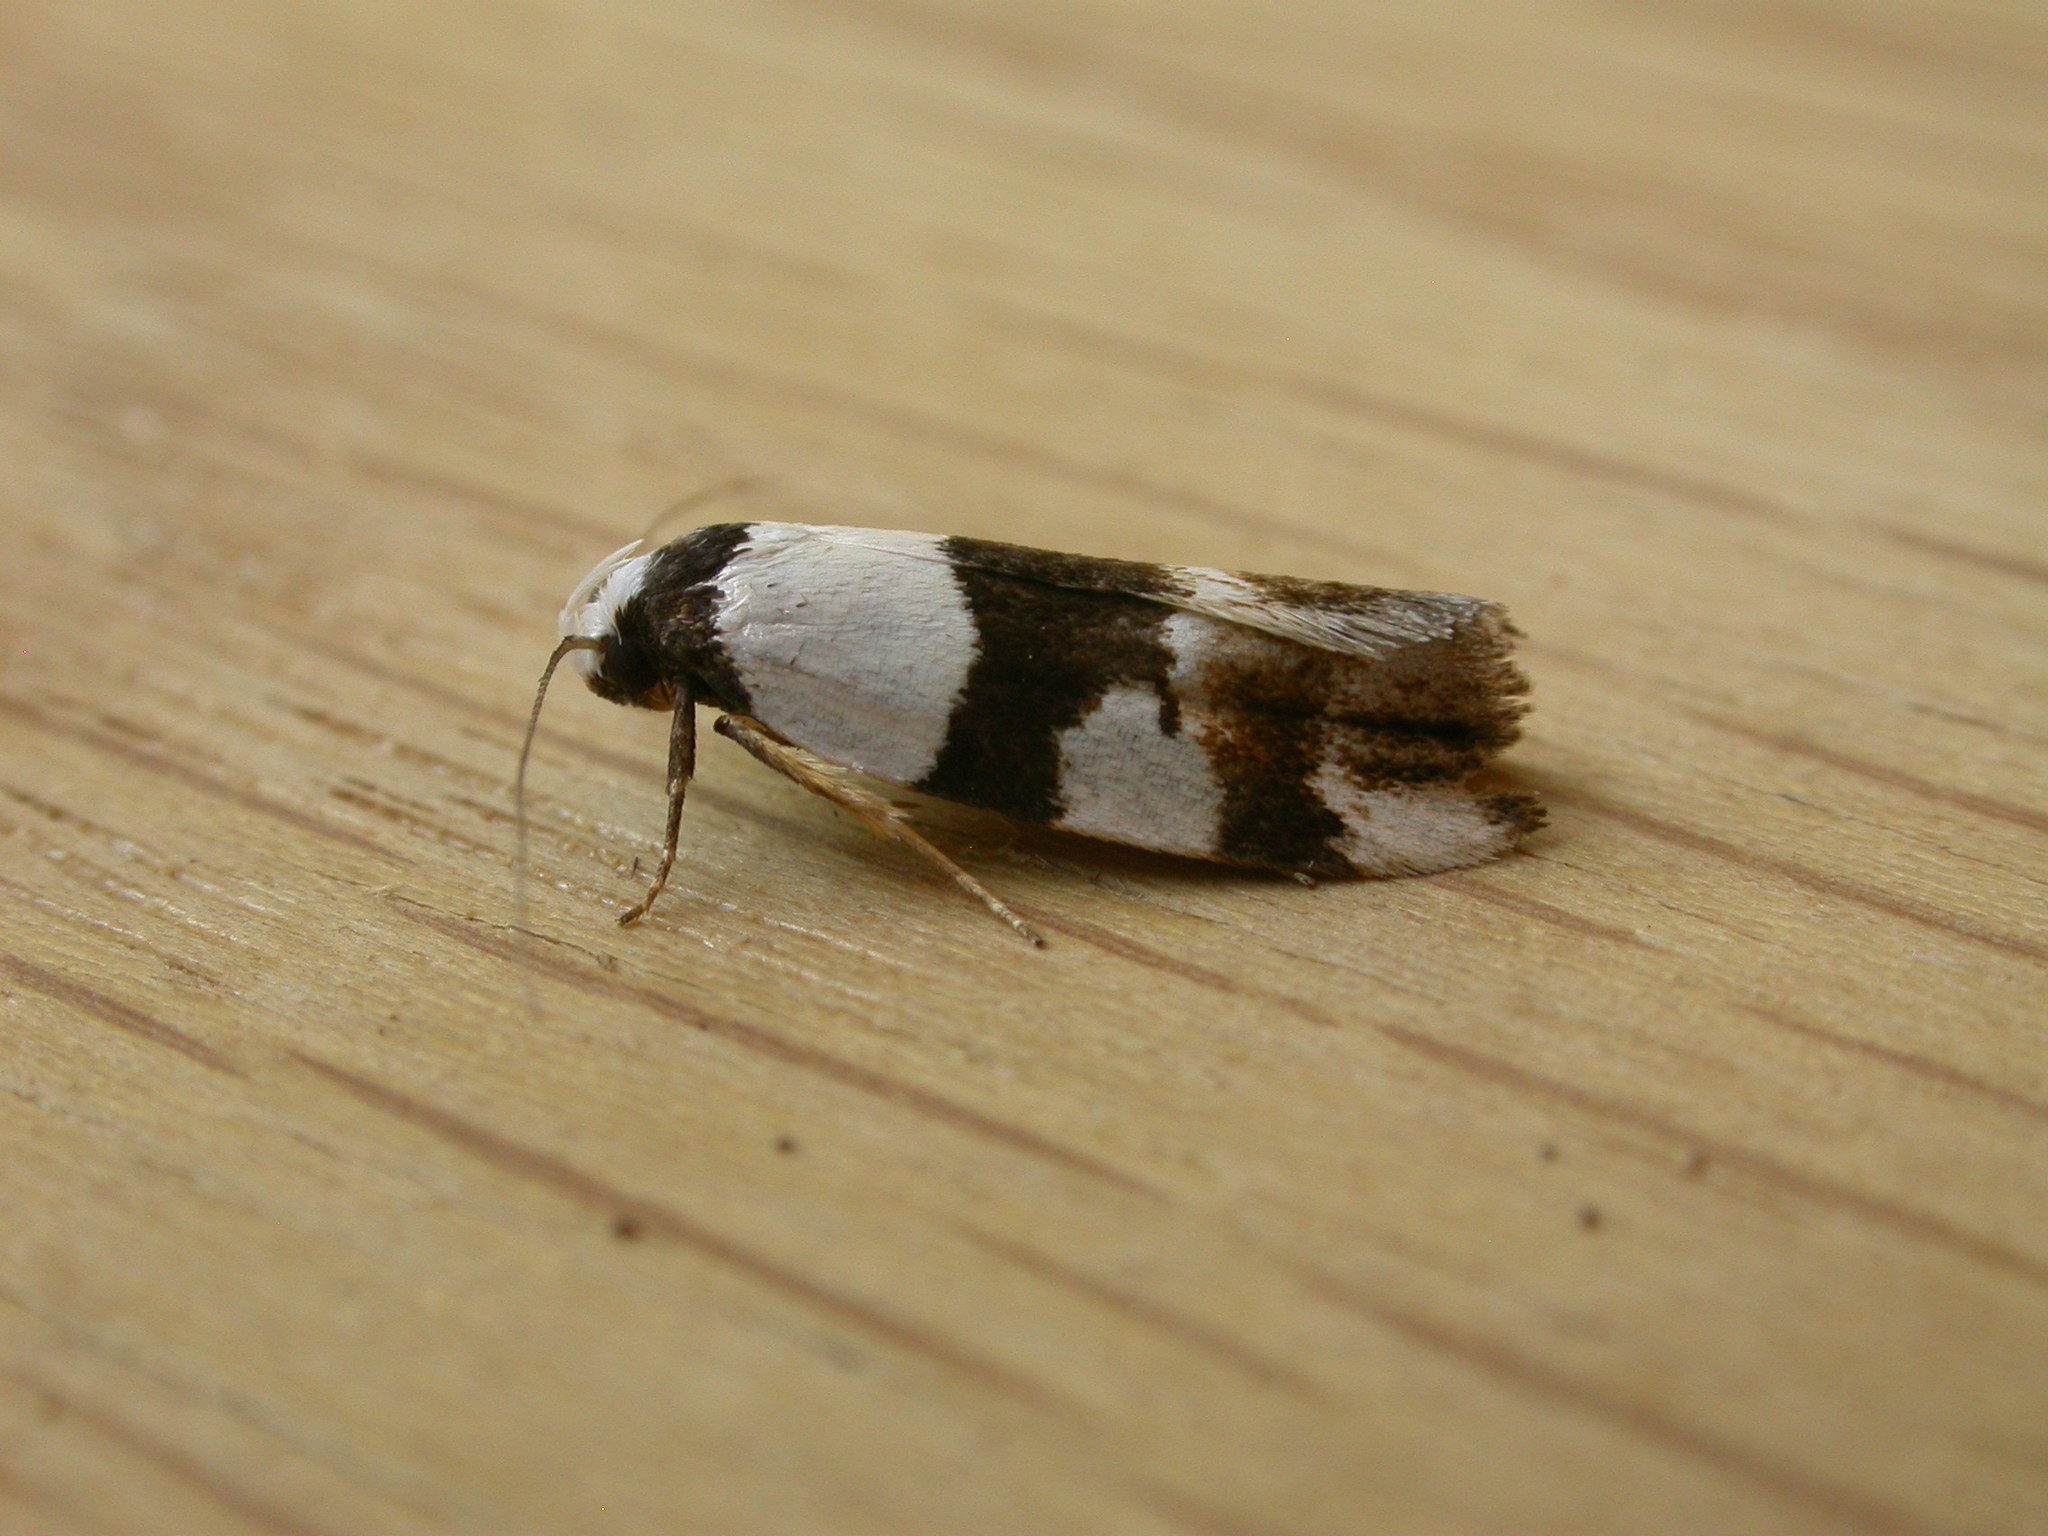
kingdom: Animalia
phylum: Arthropoda
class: Insecta
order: Lepidoptera
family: Oecophoridae
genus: Zonopetala
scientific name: Zonopetala decisana
